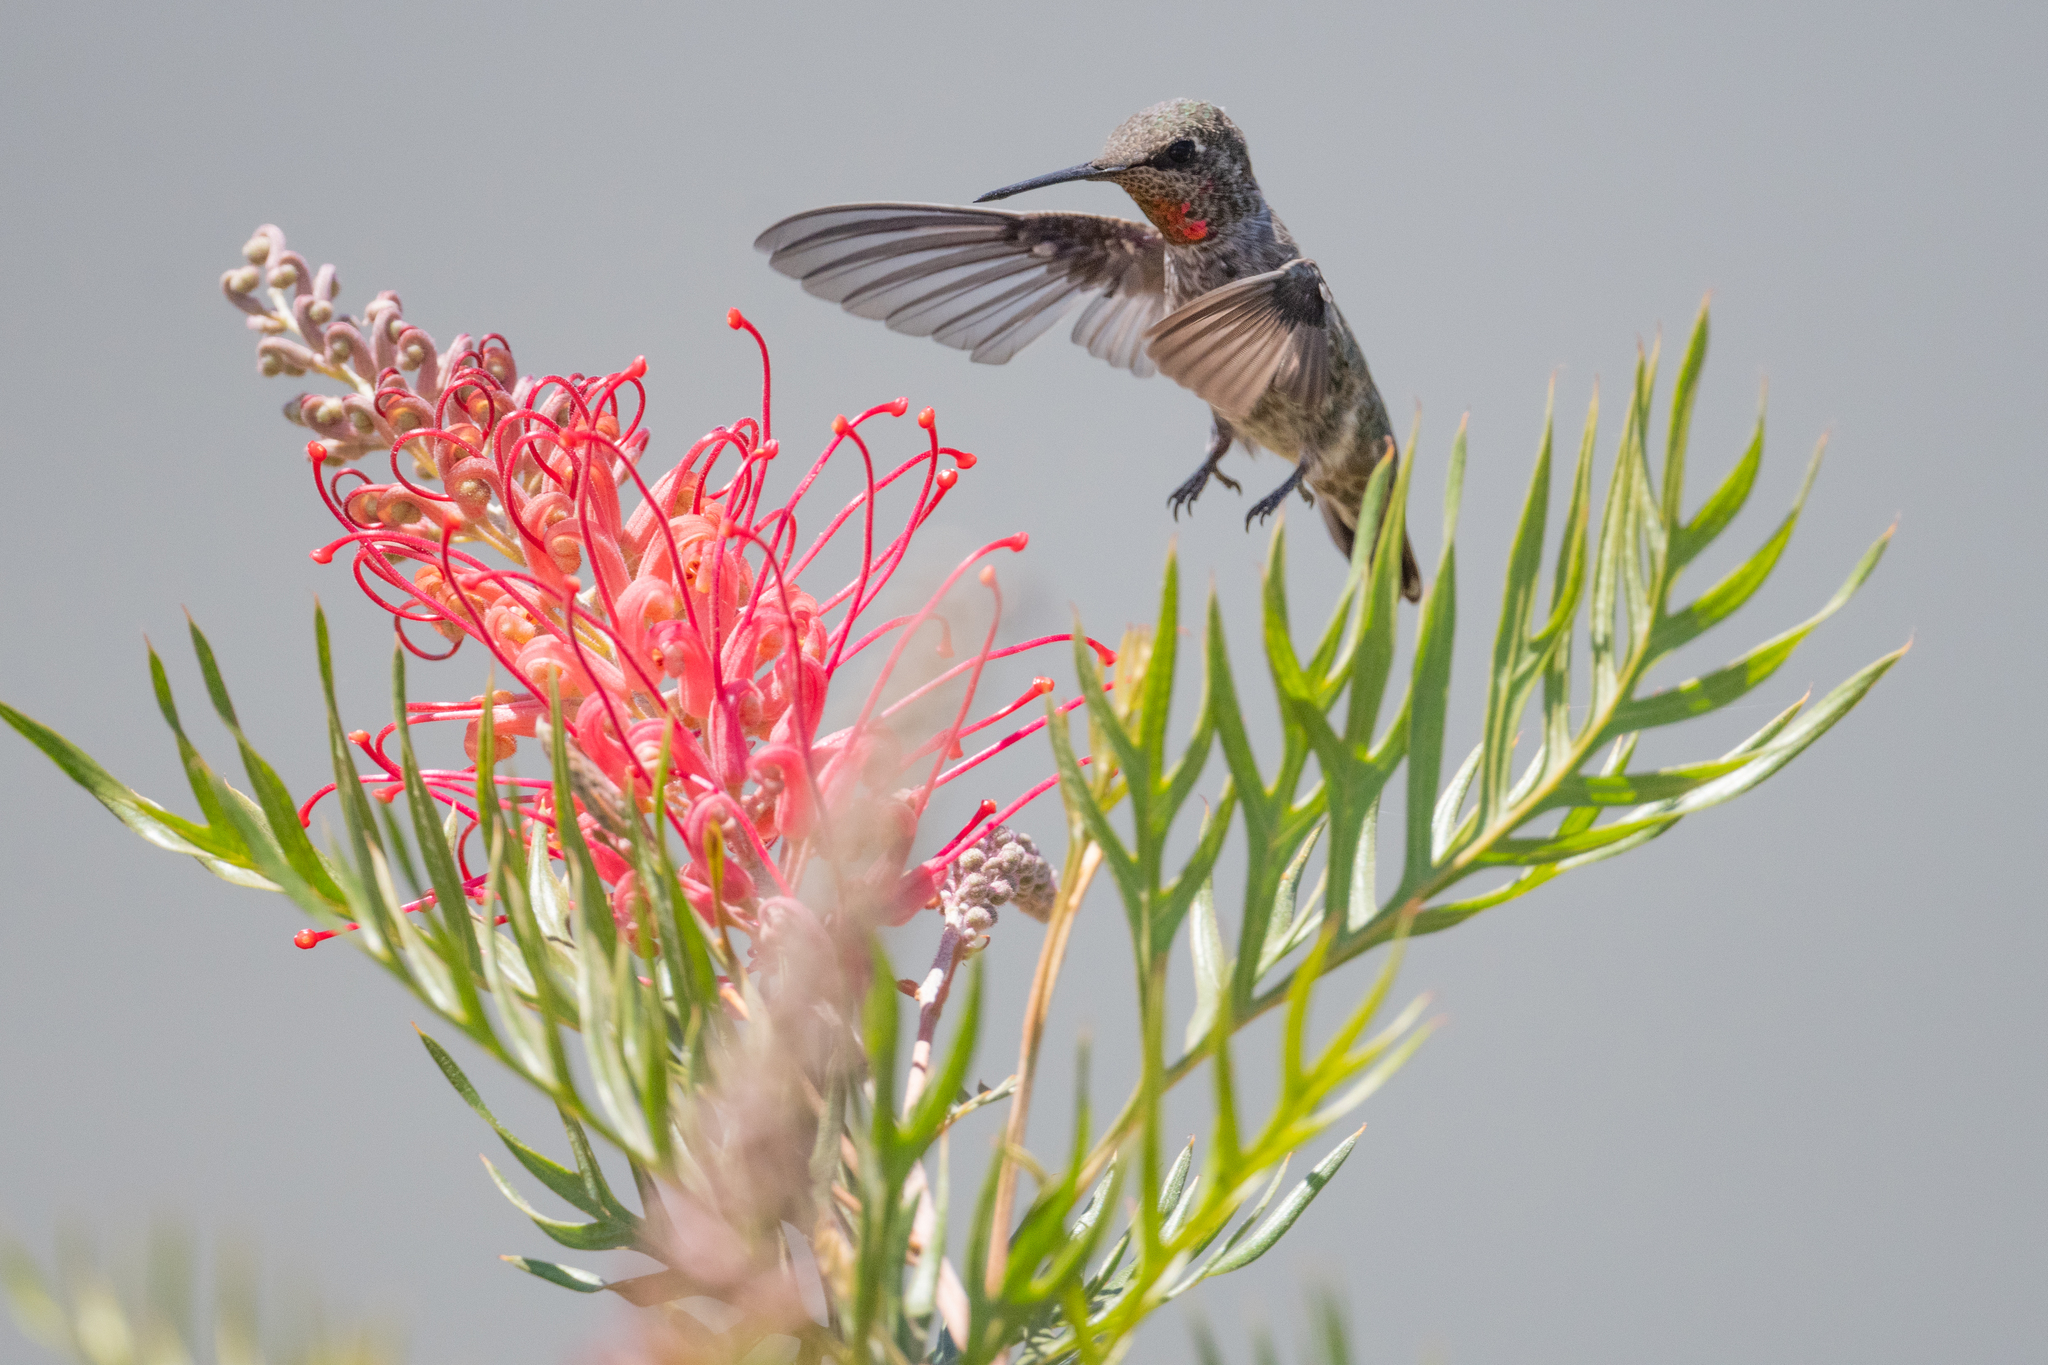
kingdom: Animalia
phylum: Chordata
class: Aves
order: Apodiformes
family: Trochilidae
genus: Calypte
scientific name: Calypte anna
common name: Anna's hummingbird
